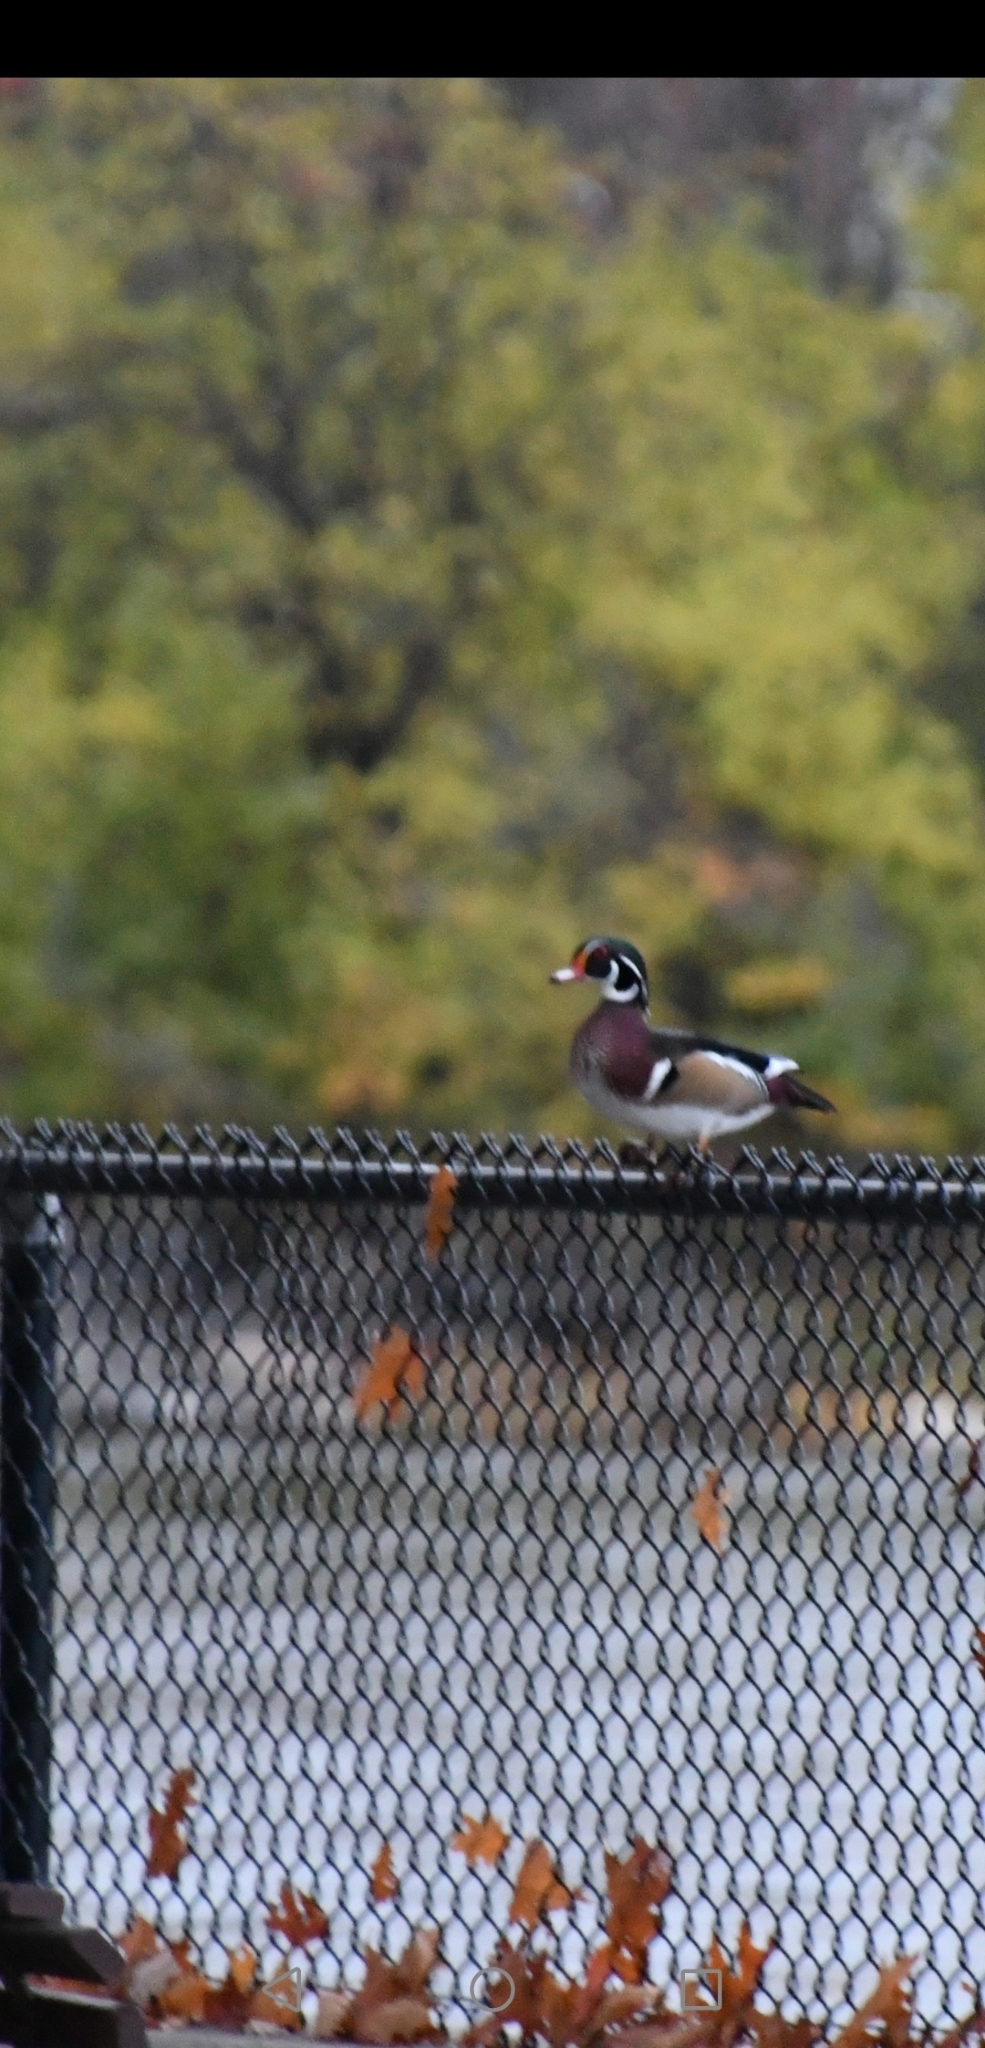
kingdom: Animalia
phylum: Chordata
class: Aves
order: Anseriformes
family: Anatidae
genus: Aix
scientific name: Aix sponsa
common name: Wood duck
